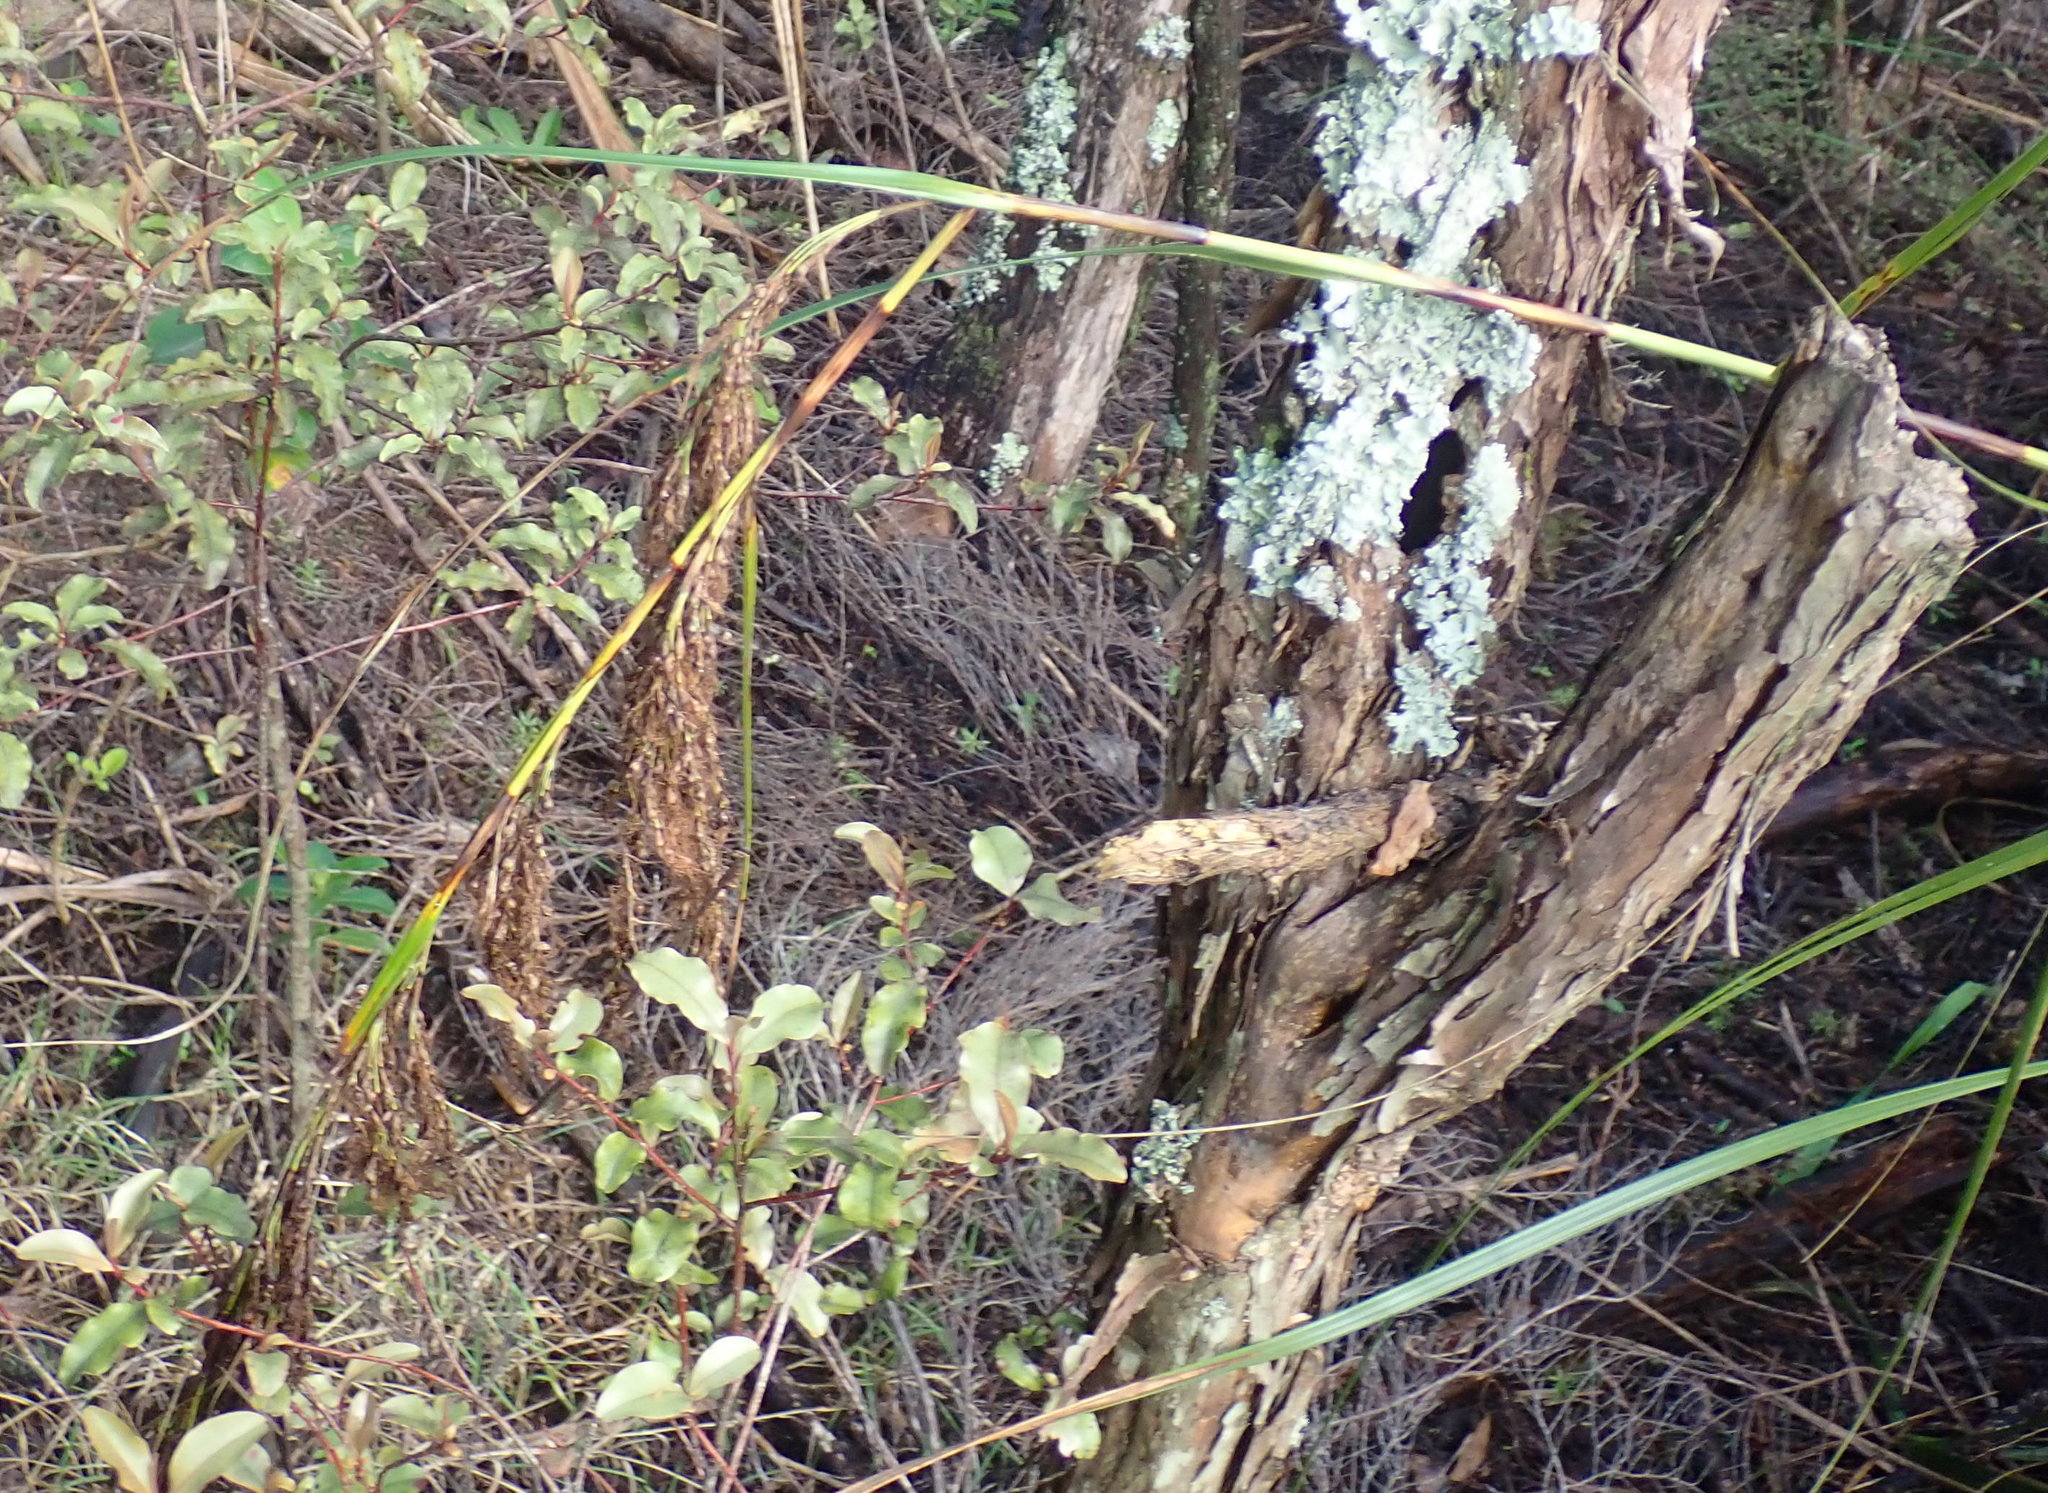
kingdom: Plantae
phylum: Tracheophyta
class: Magnoliopsida
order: Ericales
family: Primulaceae
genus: Myrsine
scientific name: Myrsine australis
